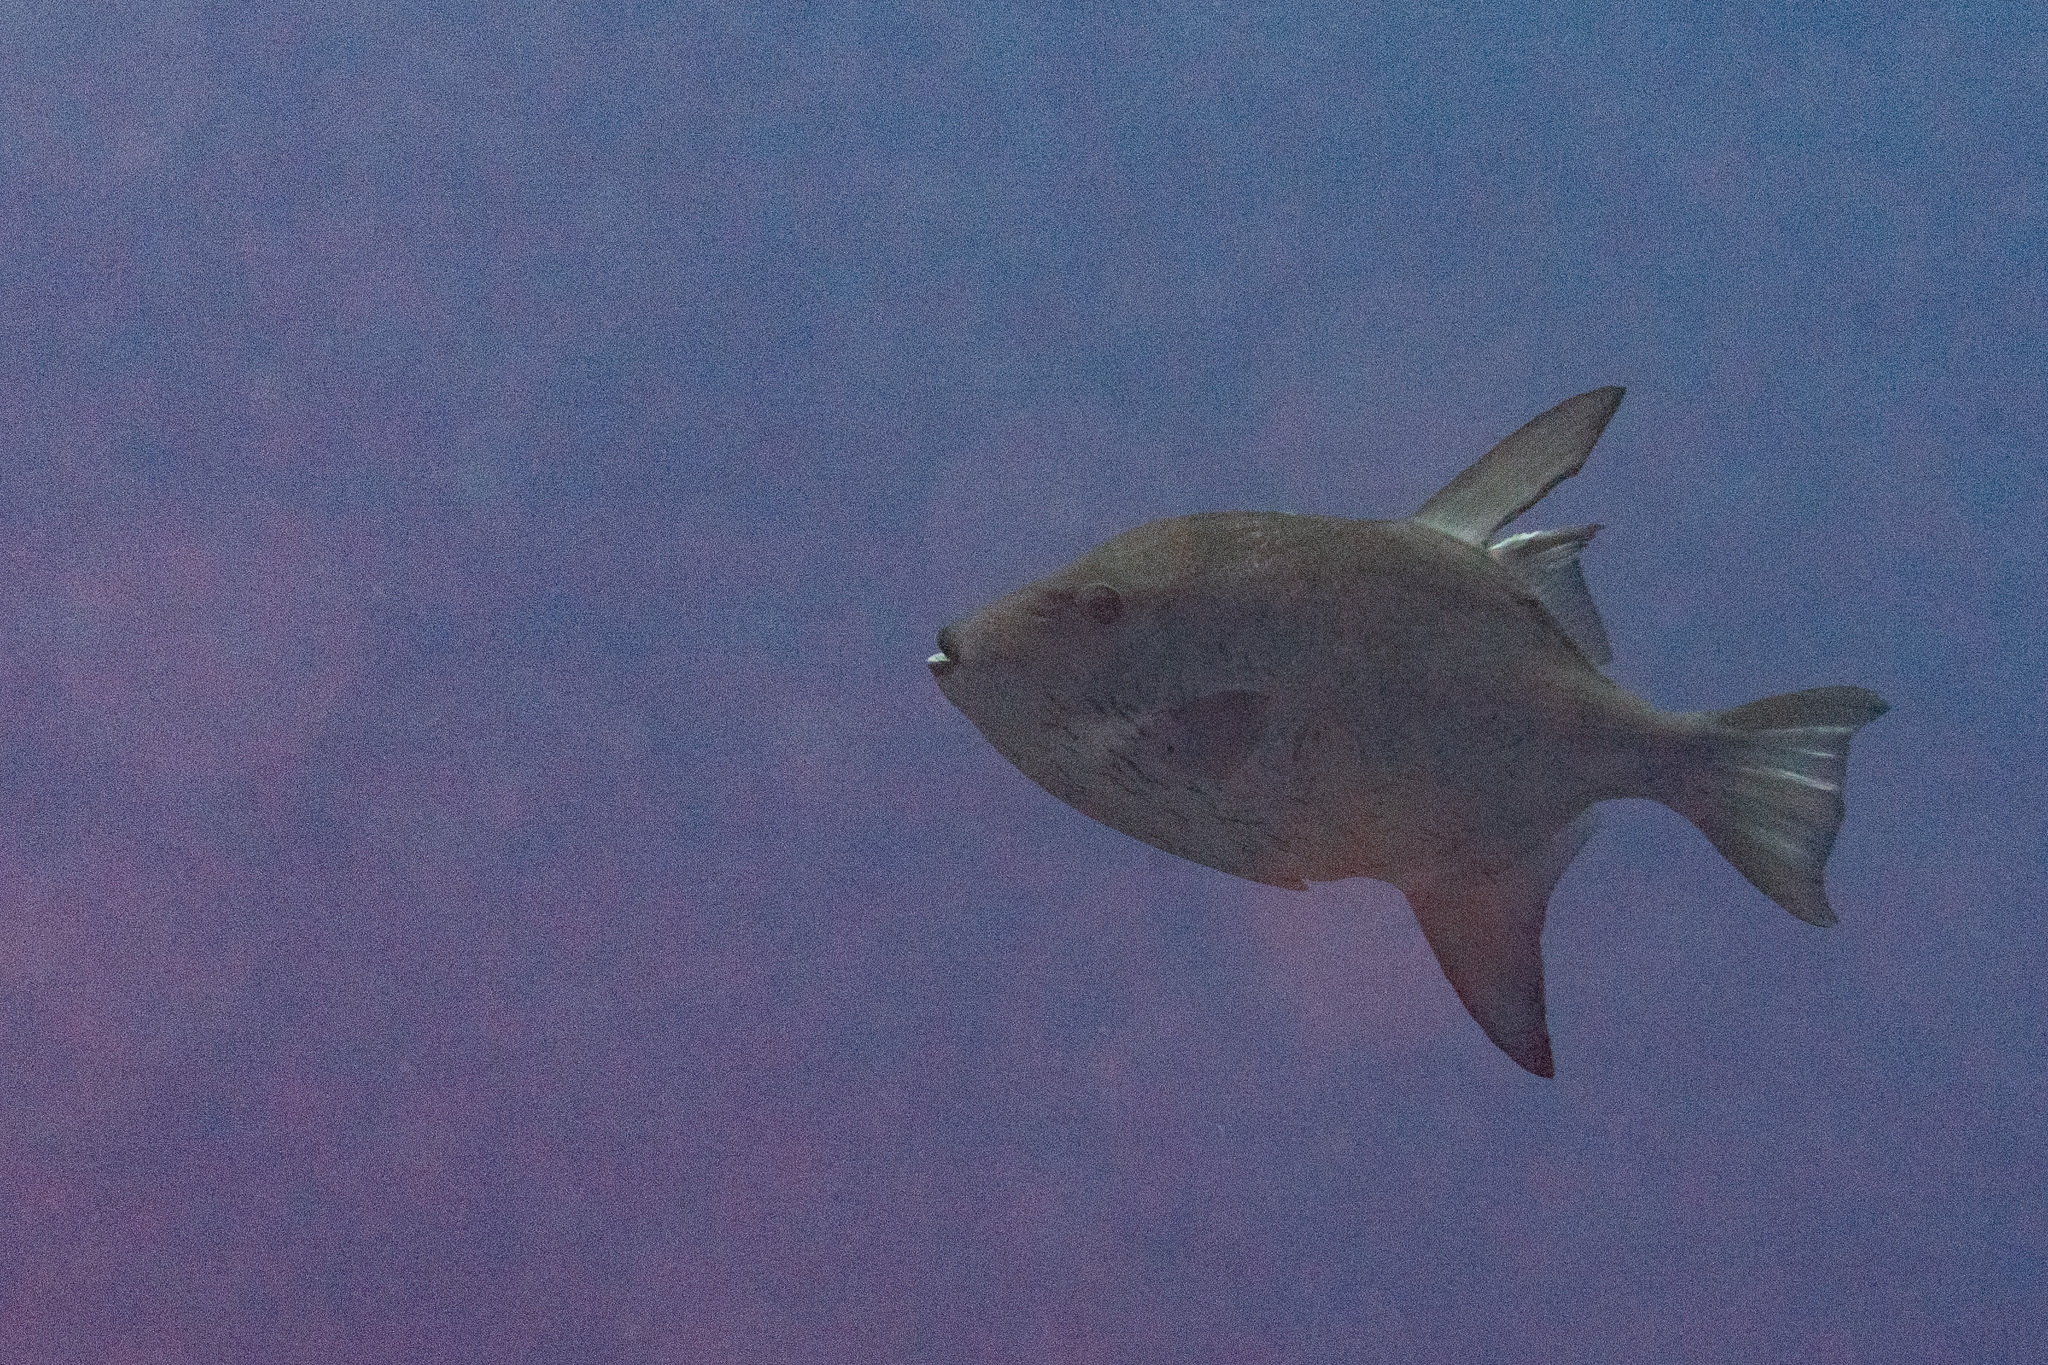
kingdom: Animalia
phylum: Chordata
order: Tetraodontiformes
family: Balistidae
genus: Canthidermis
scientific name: Canthidermis sufflamen
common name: Ocean triggerfish
